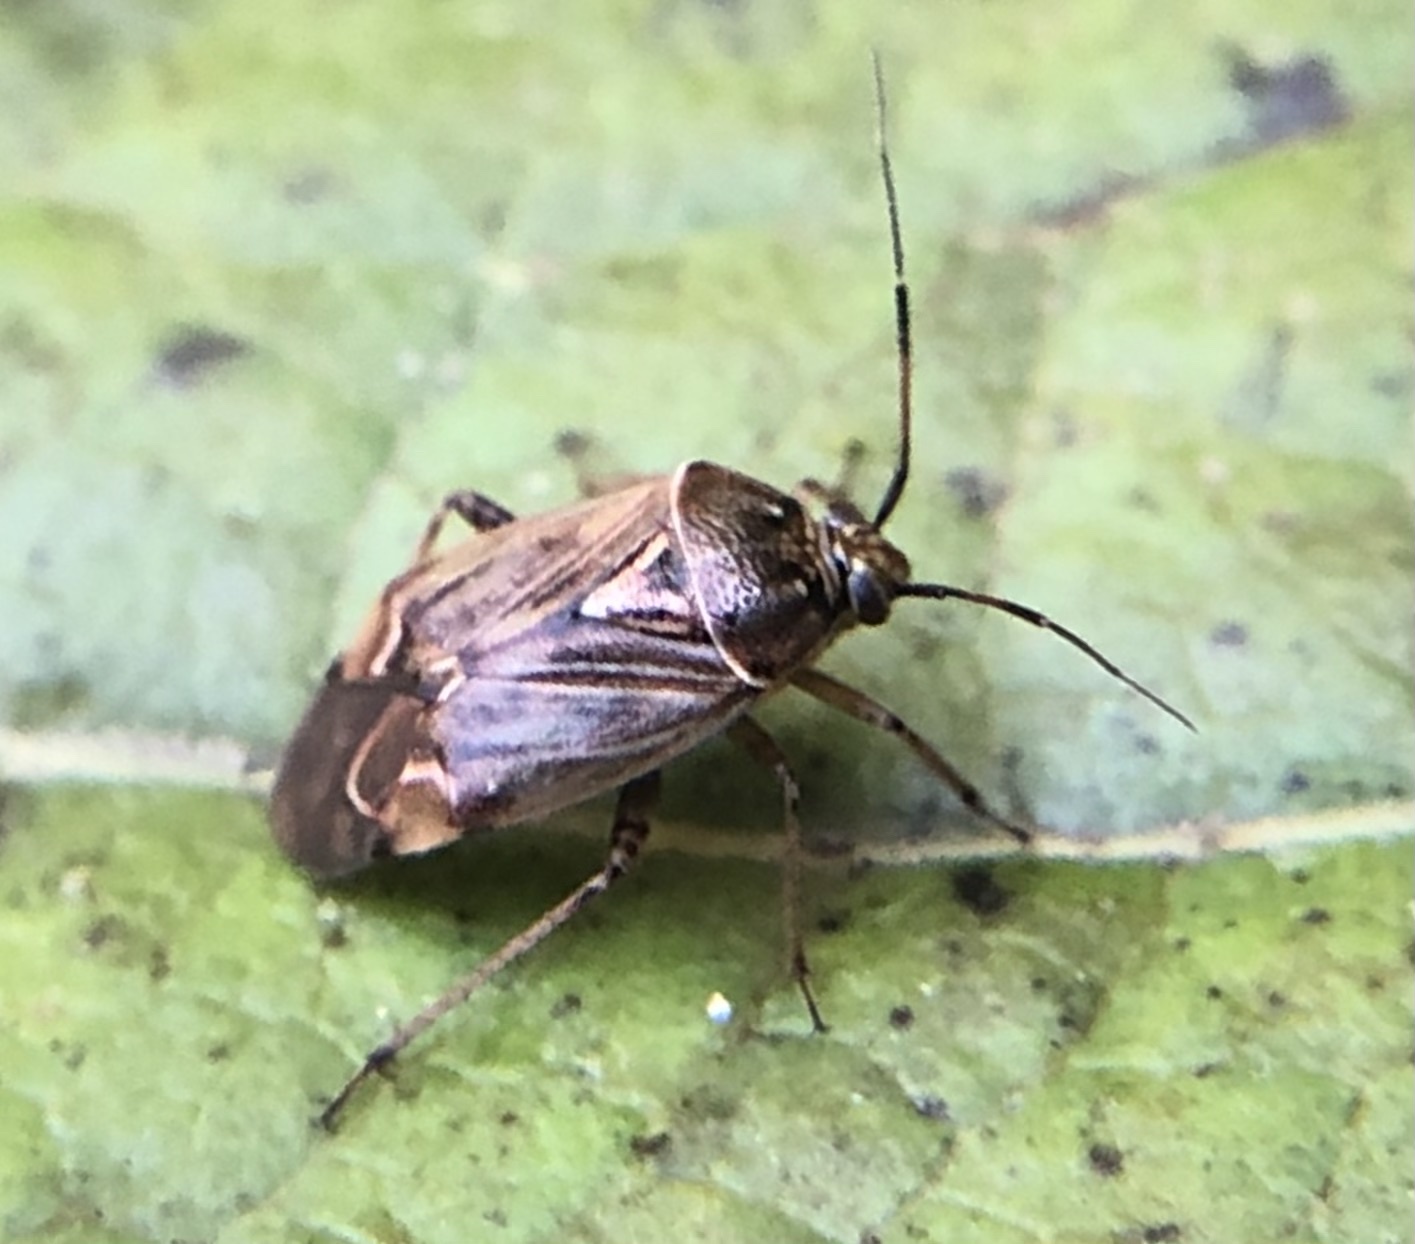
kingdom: Animalia
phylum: Arthropoda
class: Insecta
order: Hemiptera
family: Miridae
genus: Lygus
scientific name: Lygus lineolaris
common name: North american tarnished plant bug
